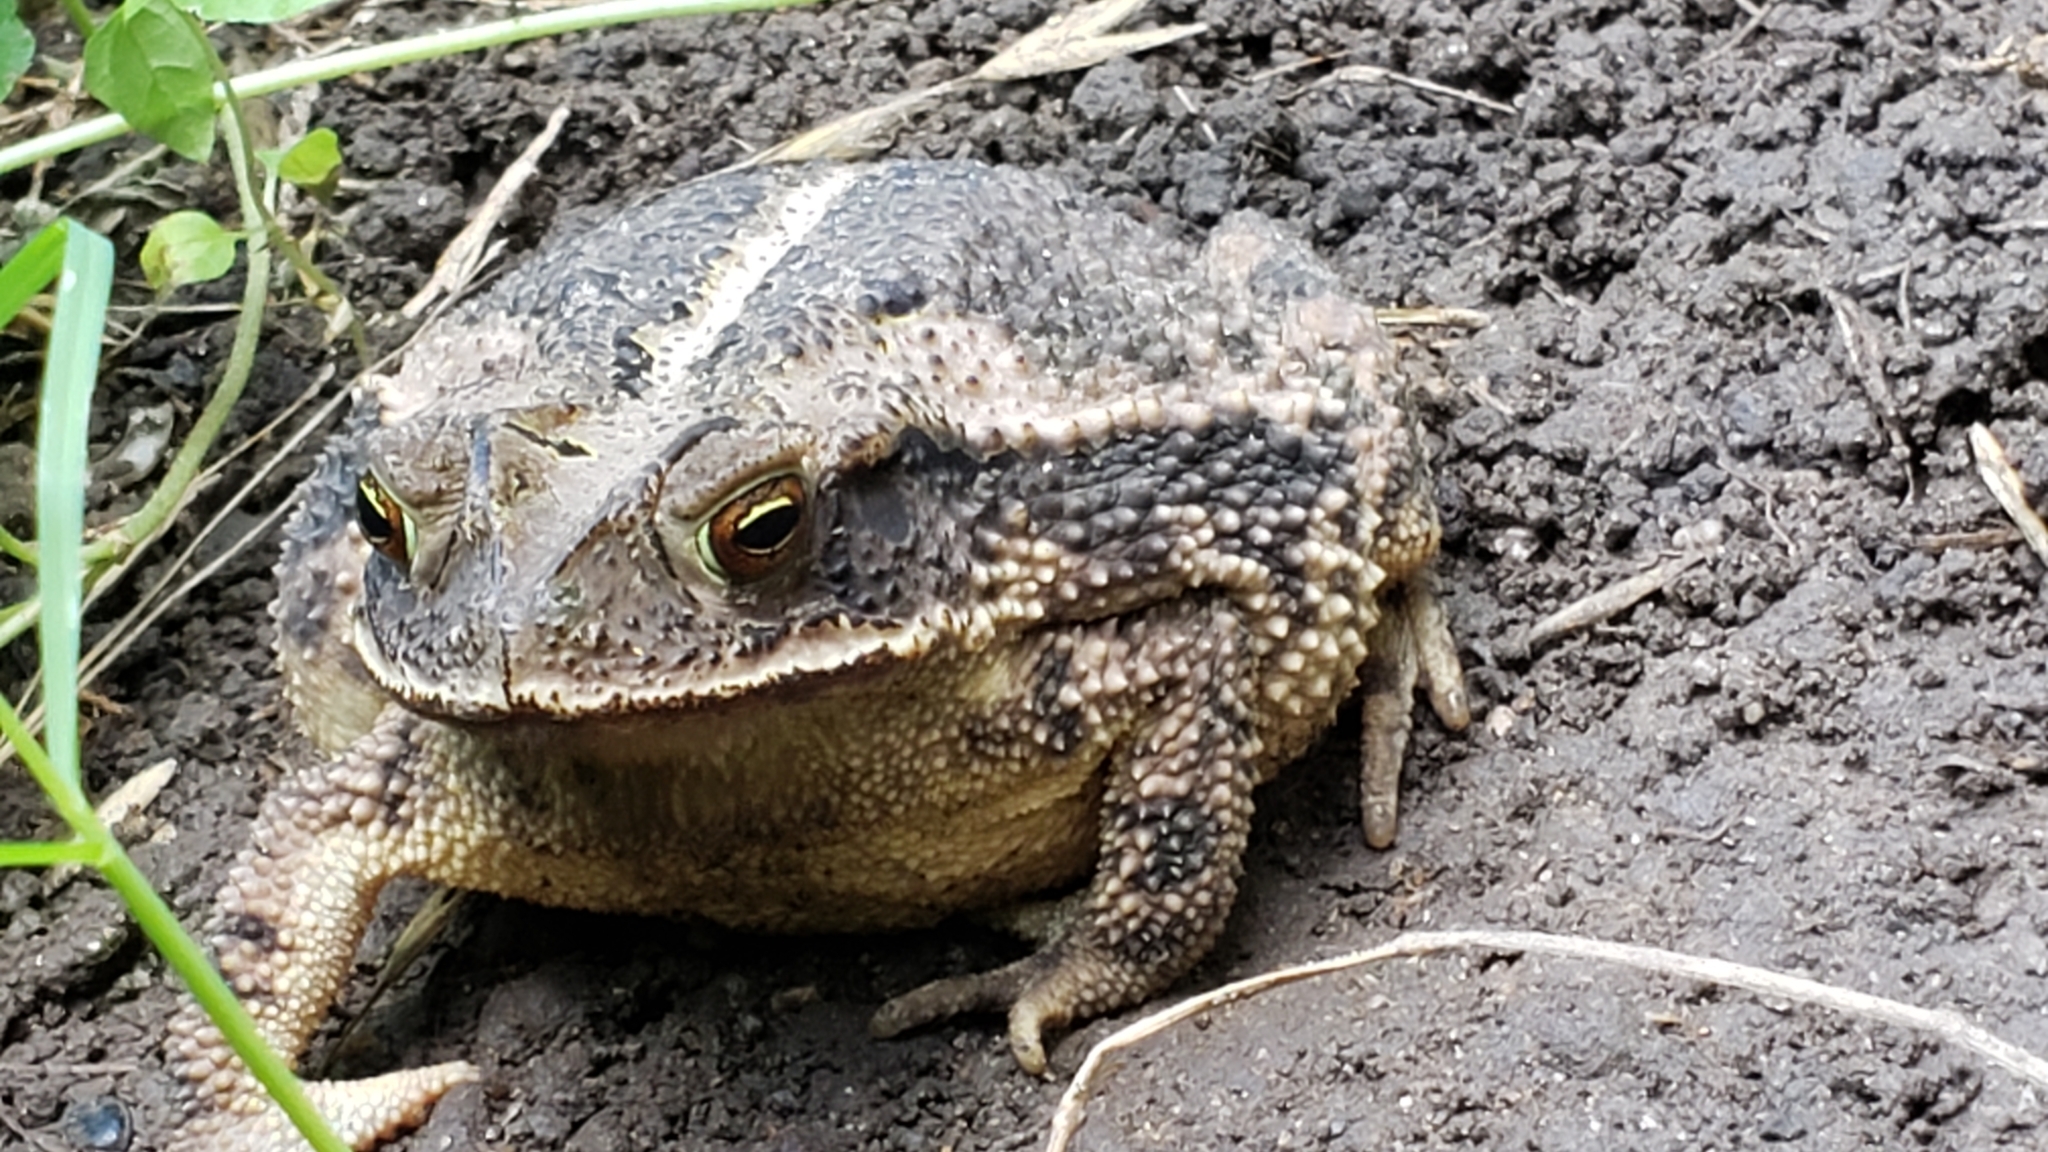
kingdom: Animalia
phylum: Chordata
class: Amphibia
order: Anura
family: Bufonidae
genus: Incilius
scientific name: Incilius nebulifer
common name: Gulf coast toad
